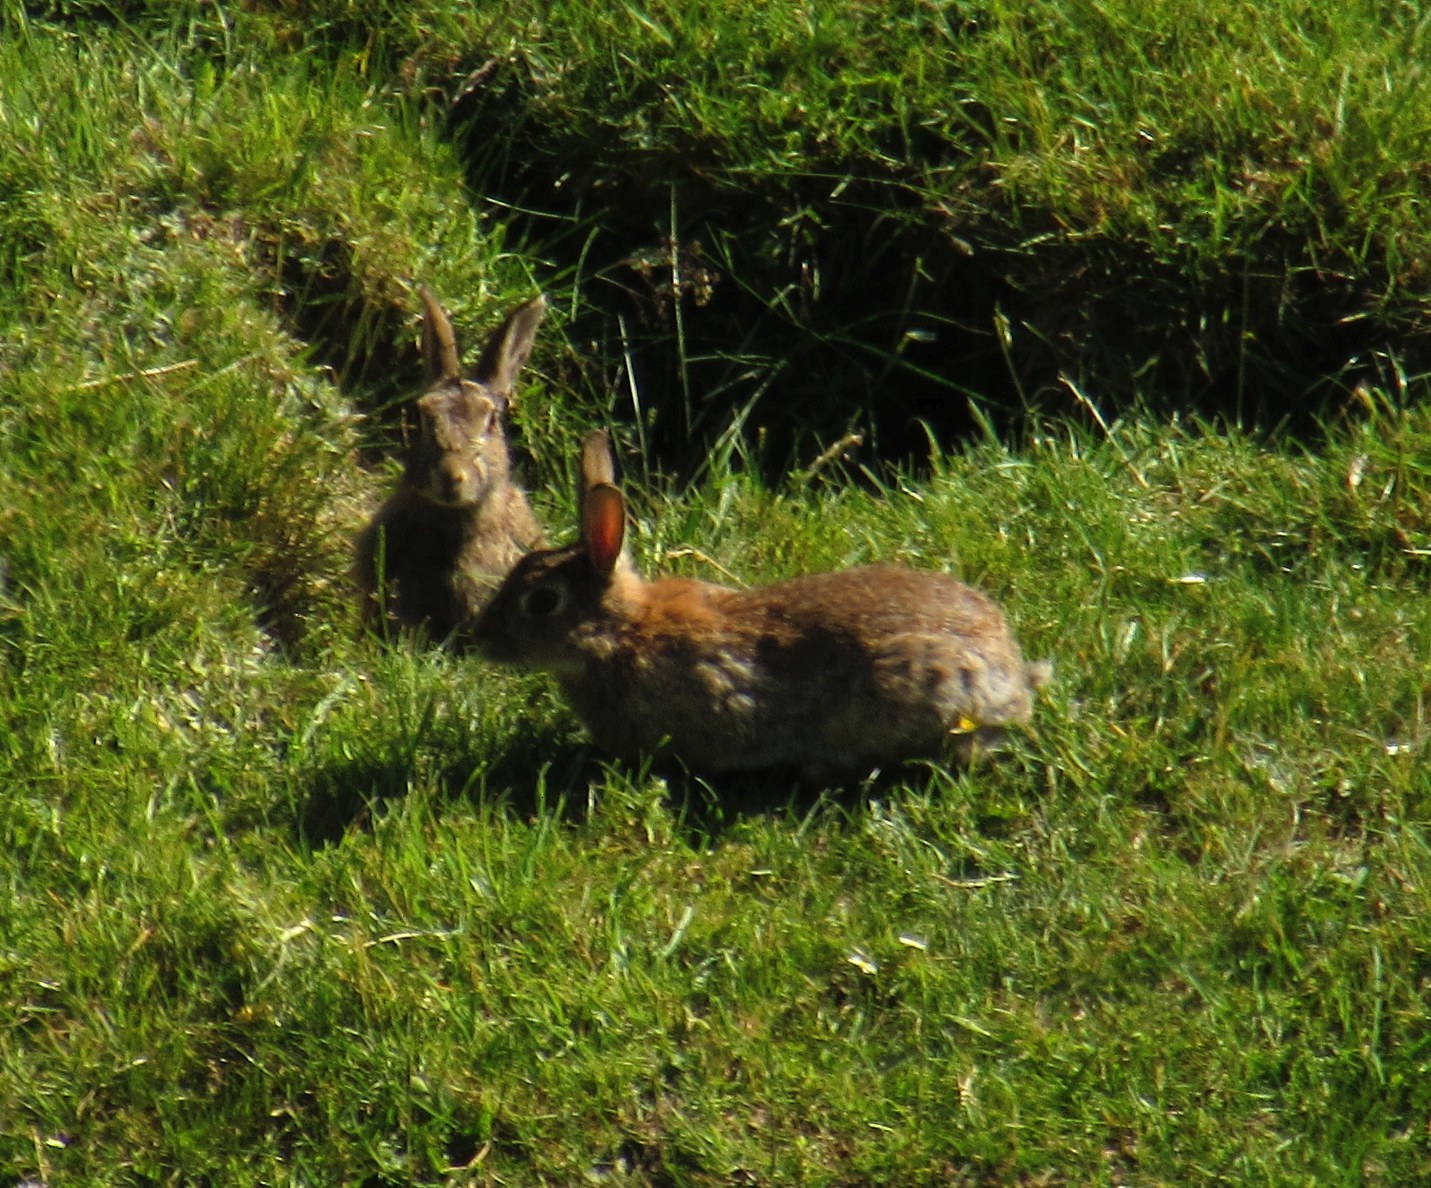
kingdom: Animalia
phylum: Chordata
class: Mammalia
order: Lagomorpha
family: Leporidae
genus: Oryctolagus
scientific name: Oryctolagus cuniculus
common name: European rabbit
